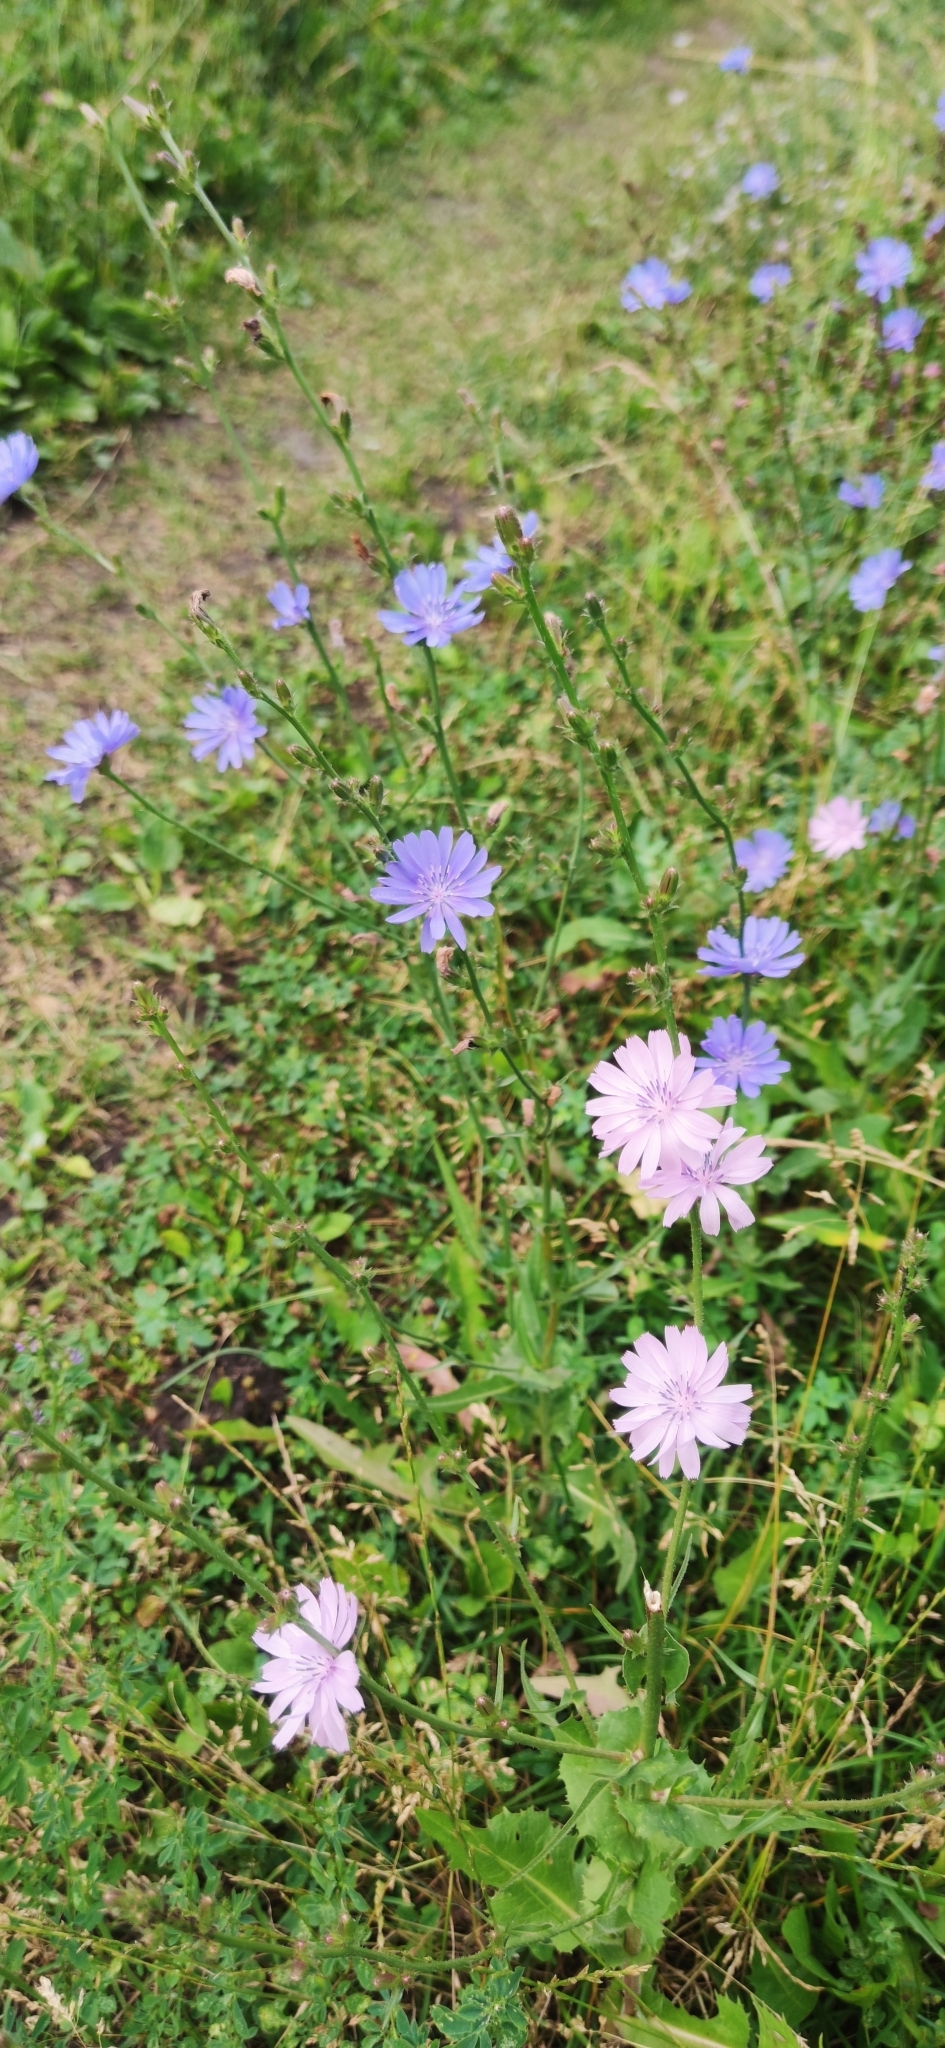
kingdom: Plantae
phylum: Tracheophyta
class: Magnoliopsida
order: Asterales
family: Asteraceae
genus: Cichorium
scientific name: Cichorium intybus
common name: Chicory
